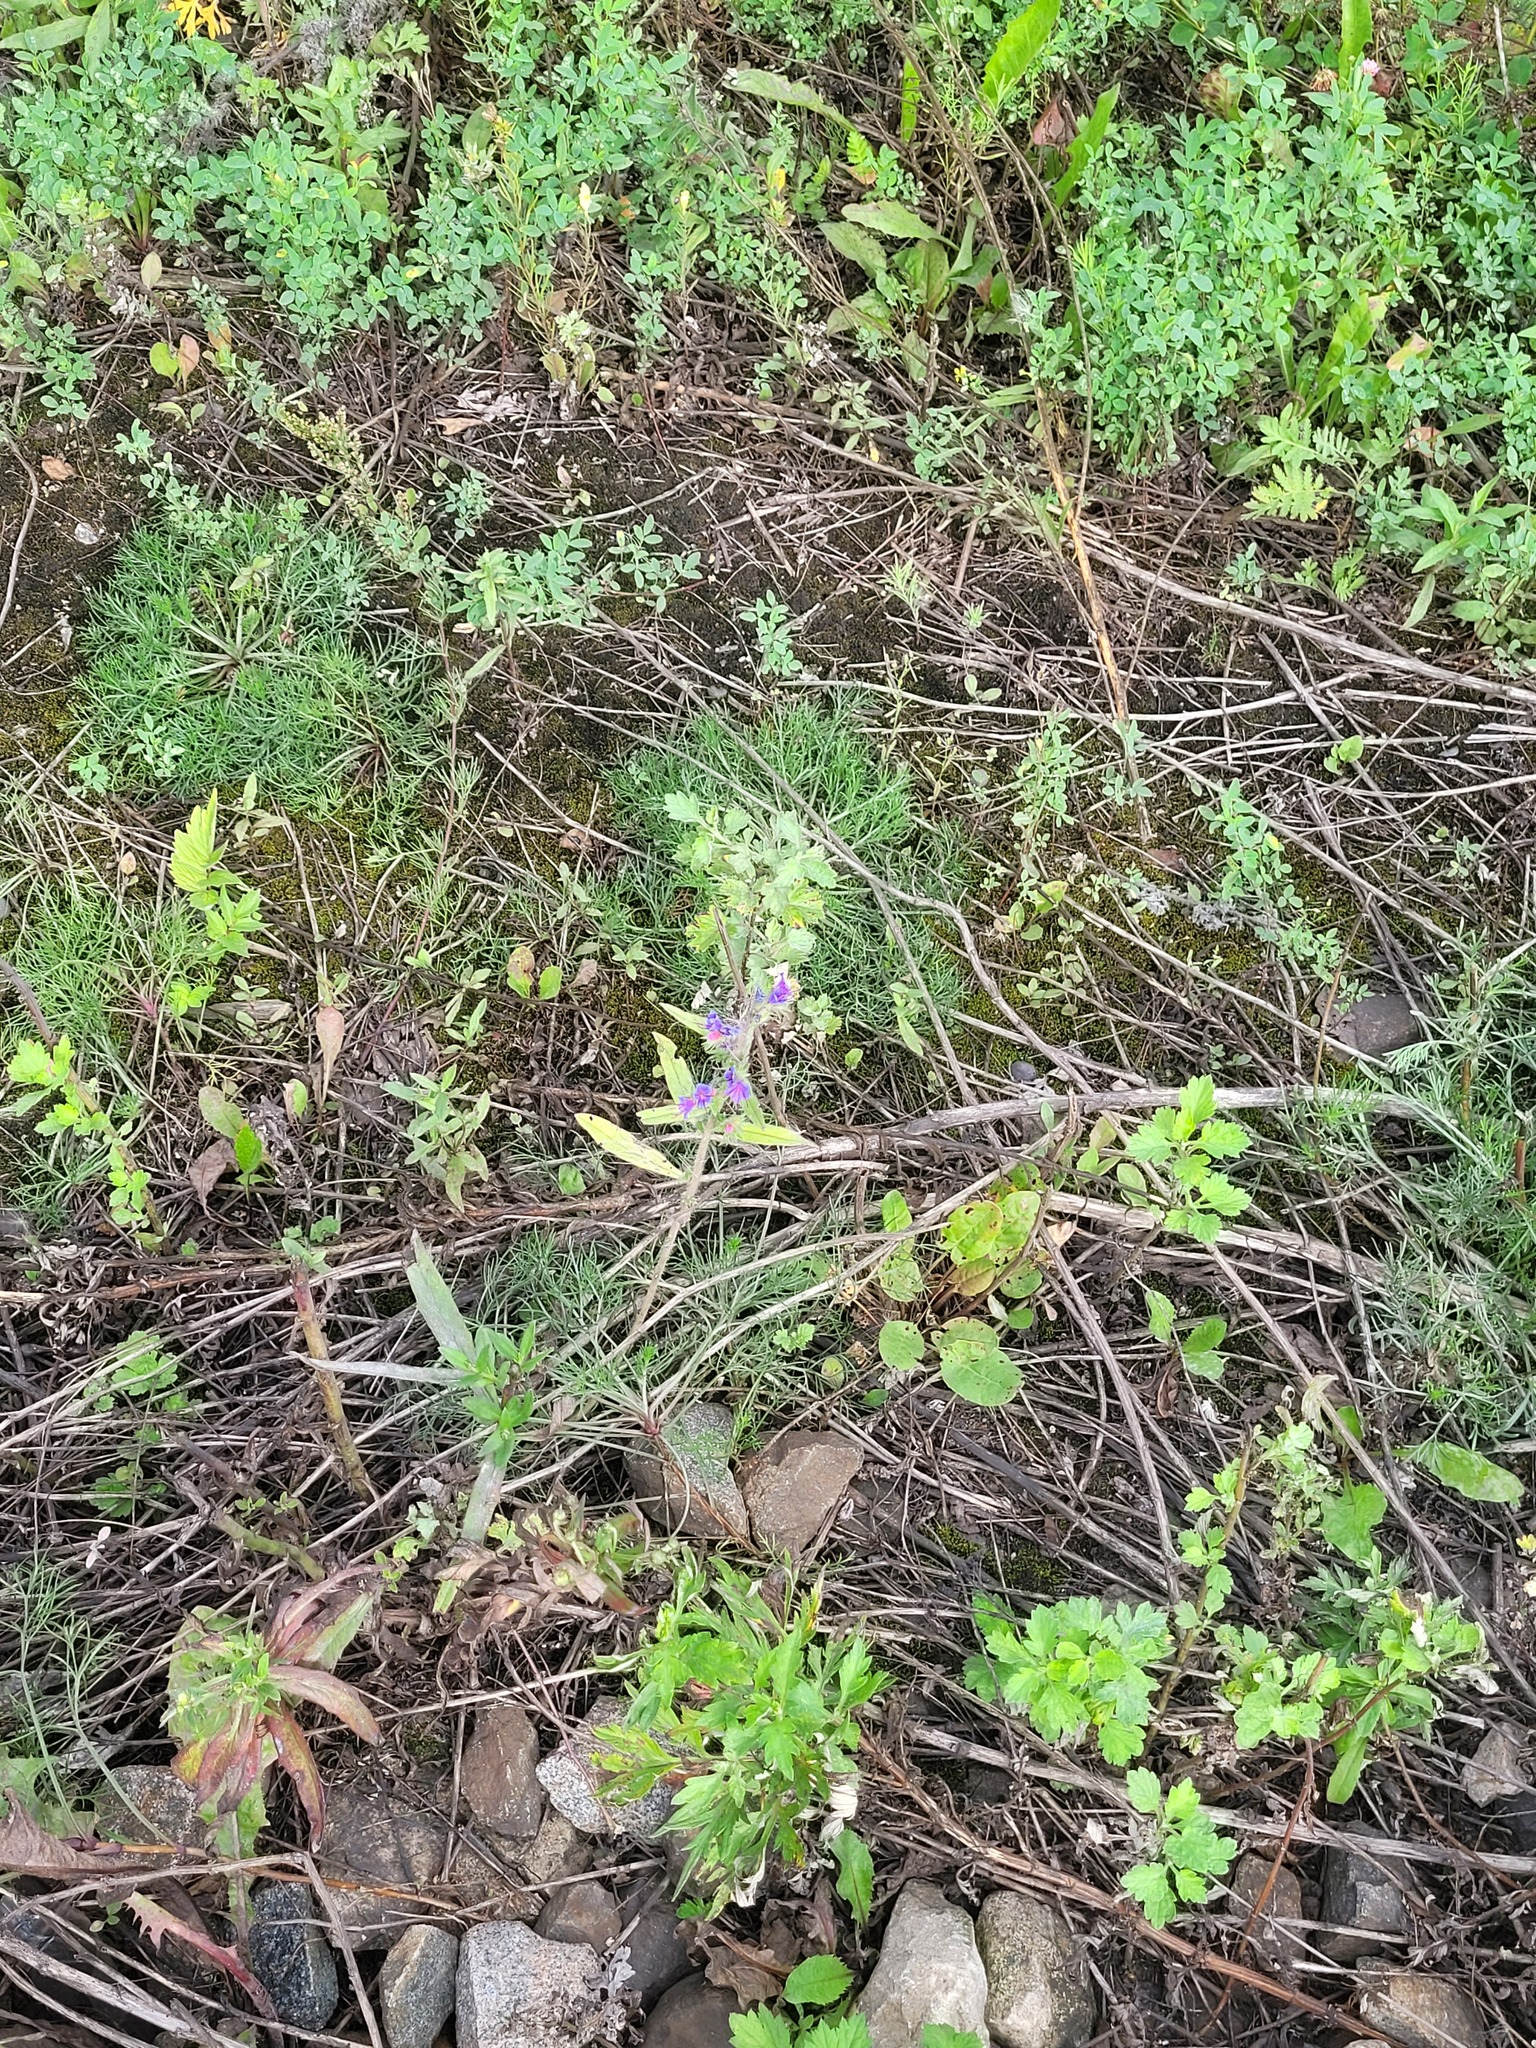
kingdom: Plantae
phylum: Tracheophyta
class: Magnoliopsida
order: Boraginales
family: Boraginaceae
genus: Echium
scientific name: Echium vulgare
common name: Common viper's bugloss
